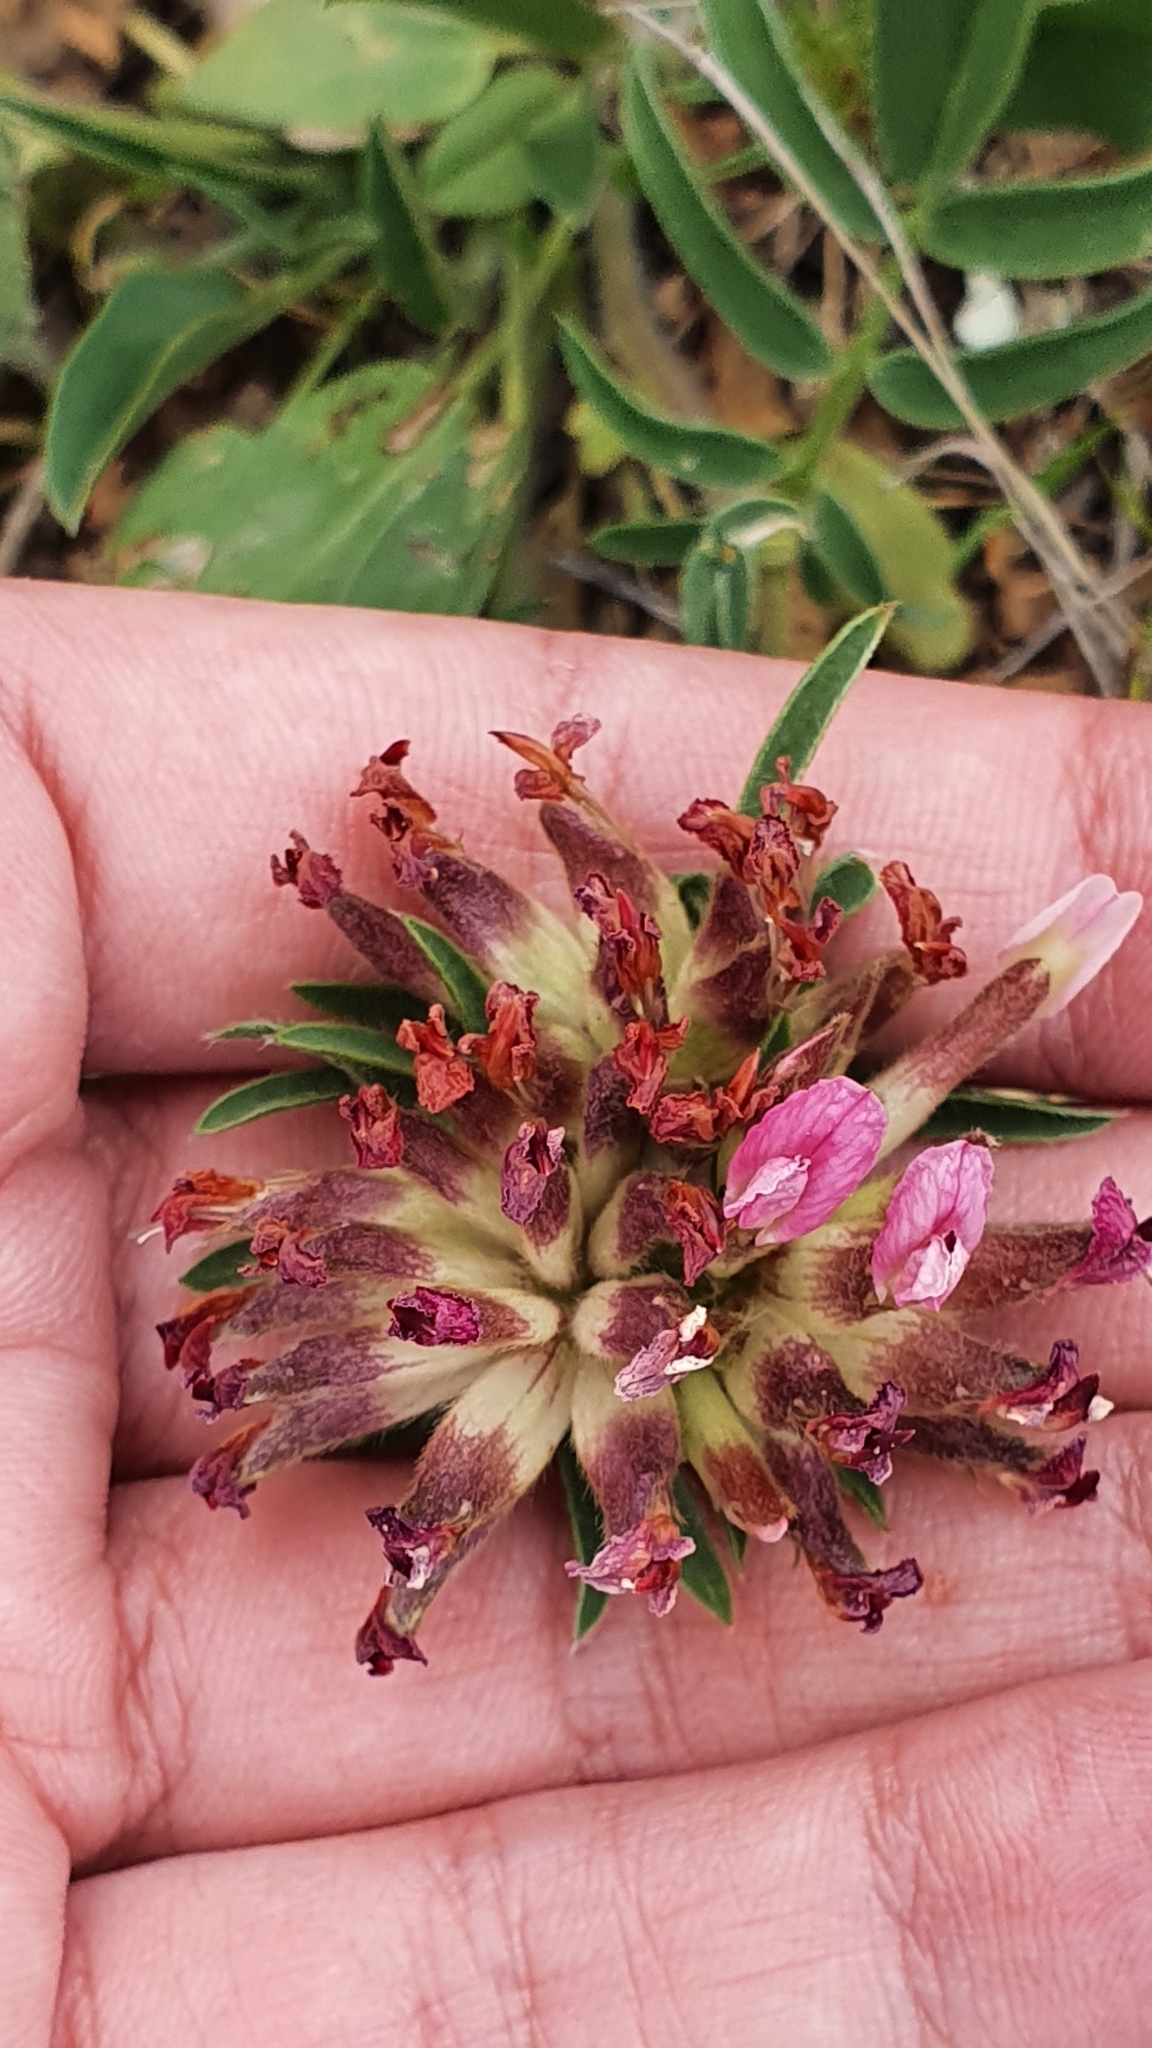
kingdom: Plantae
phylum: Tracheophyta
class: Magnoliopsida
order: Fabales
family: Fabaceae
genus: Anthyllis
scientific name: Anthyllis vulneraria
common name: Kidney vetch
